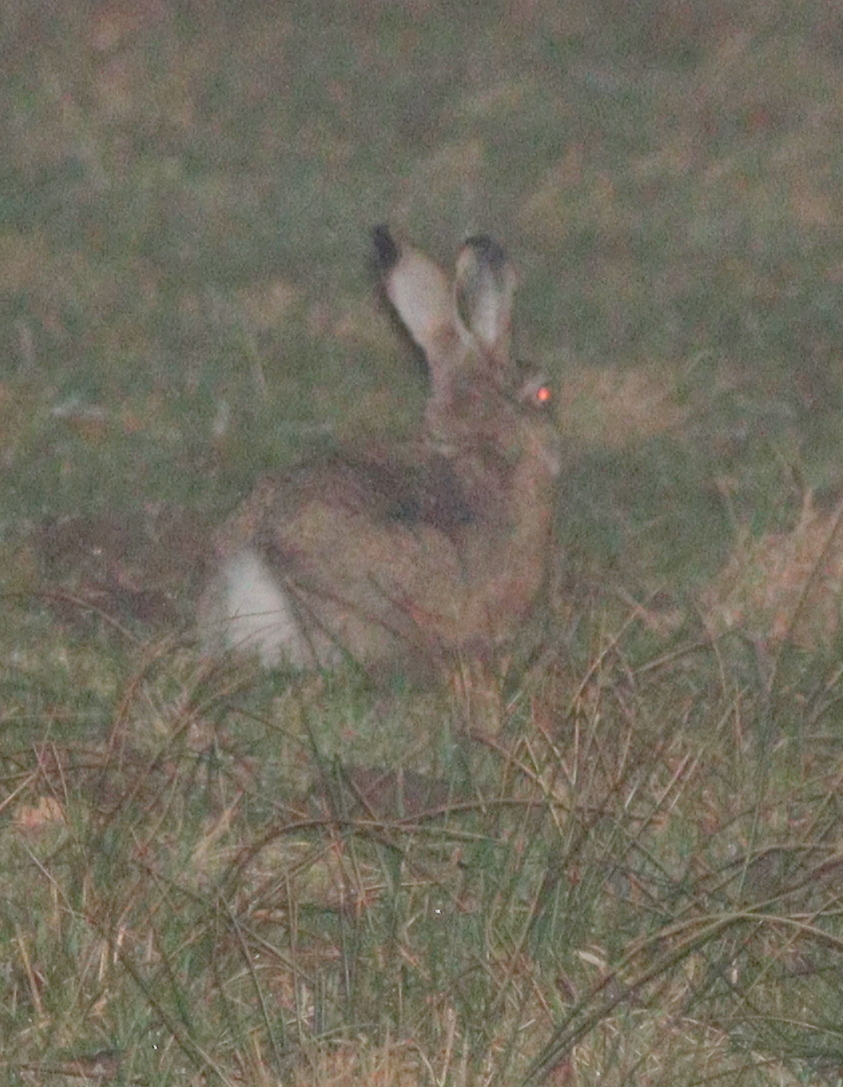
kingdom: Animalia
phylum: Chordata
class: Mammalia
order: Lagomorpha
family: Leporidae
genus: Lepus
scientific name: Lepus europaeus
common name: European hare
